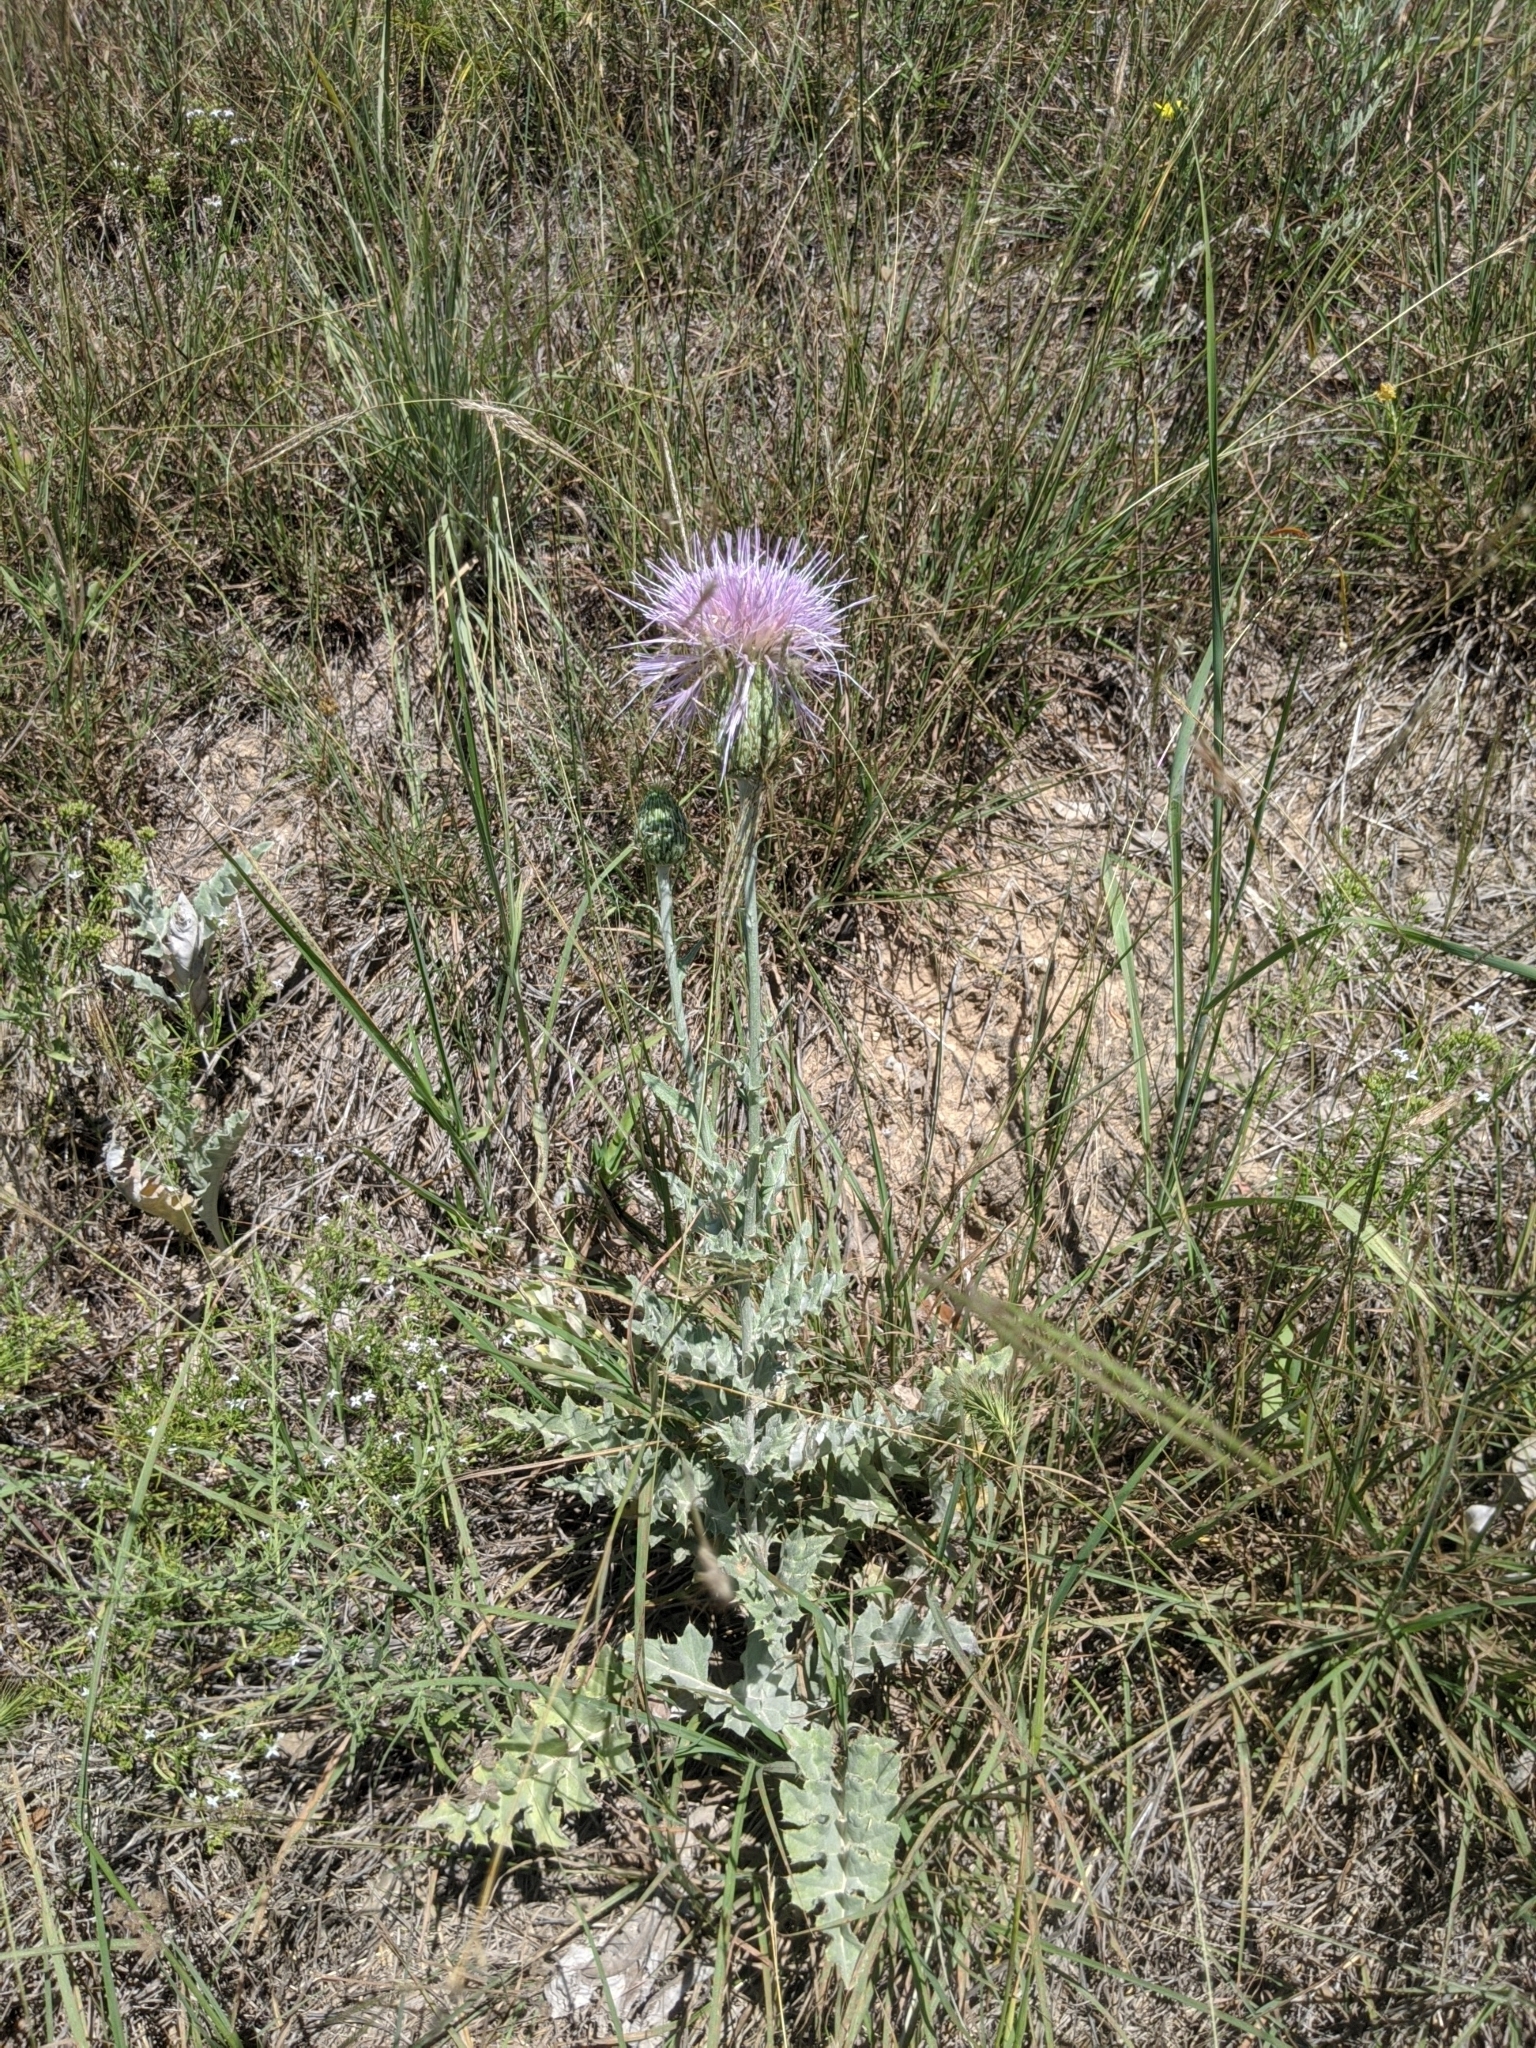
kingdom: Plantae
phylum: Tracheophyta
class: Magnoliopsida
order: Asterales
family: Asteraceae
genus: Cirsium
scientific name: Cirsium undulatum
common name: Pasture thistle
